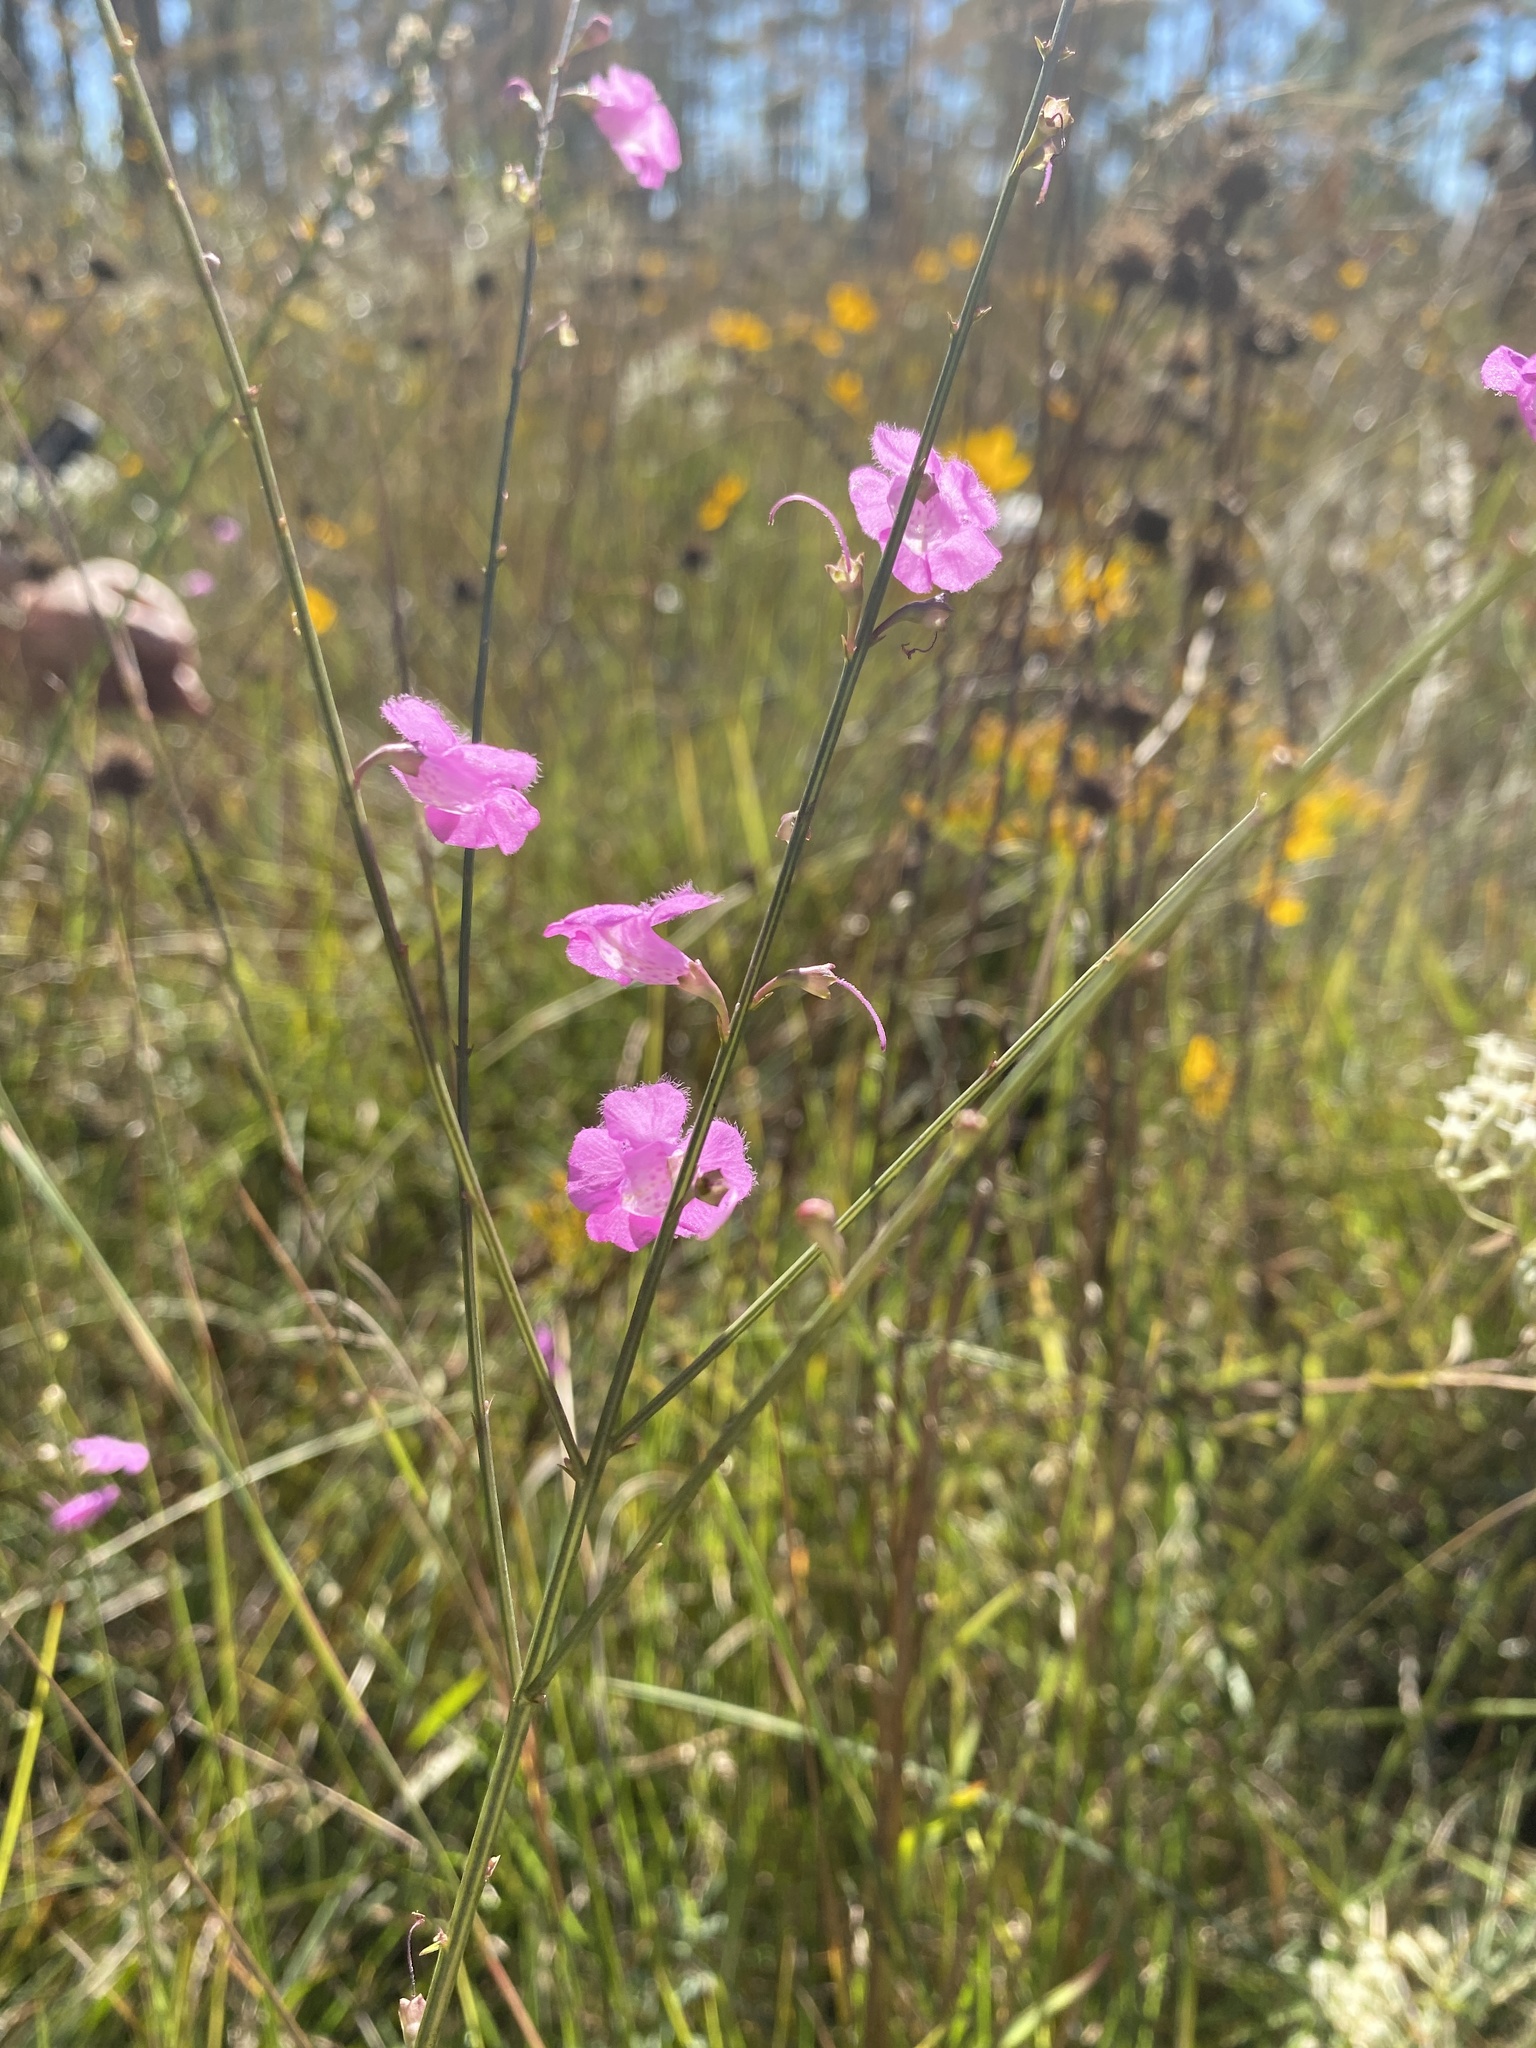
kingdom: Plantae
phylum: Tracheophyta
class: Magnoliopsida
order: Lamiales
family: Orobanchaceae
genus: Agalinis
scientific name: Agalinis aphylla
